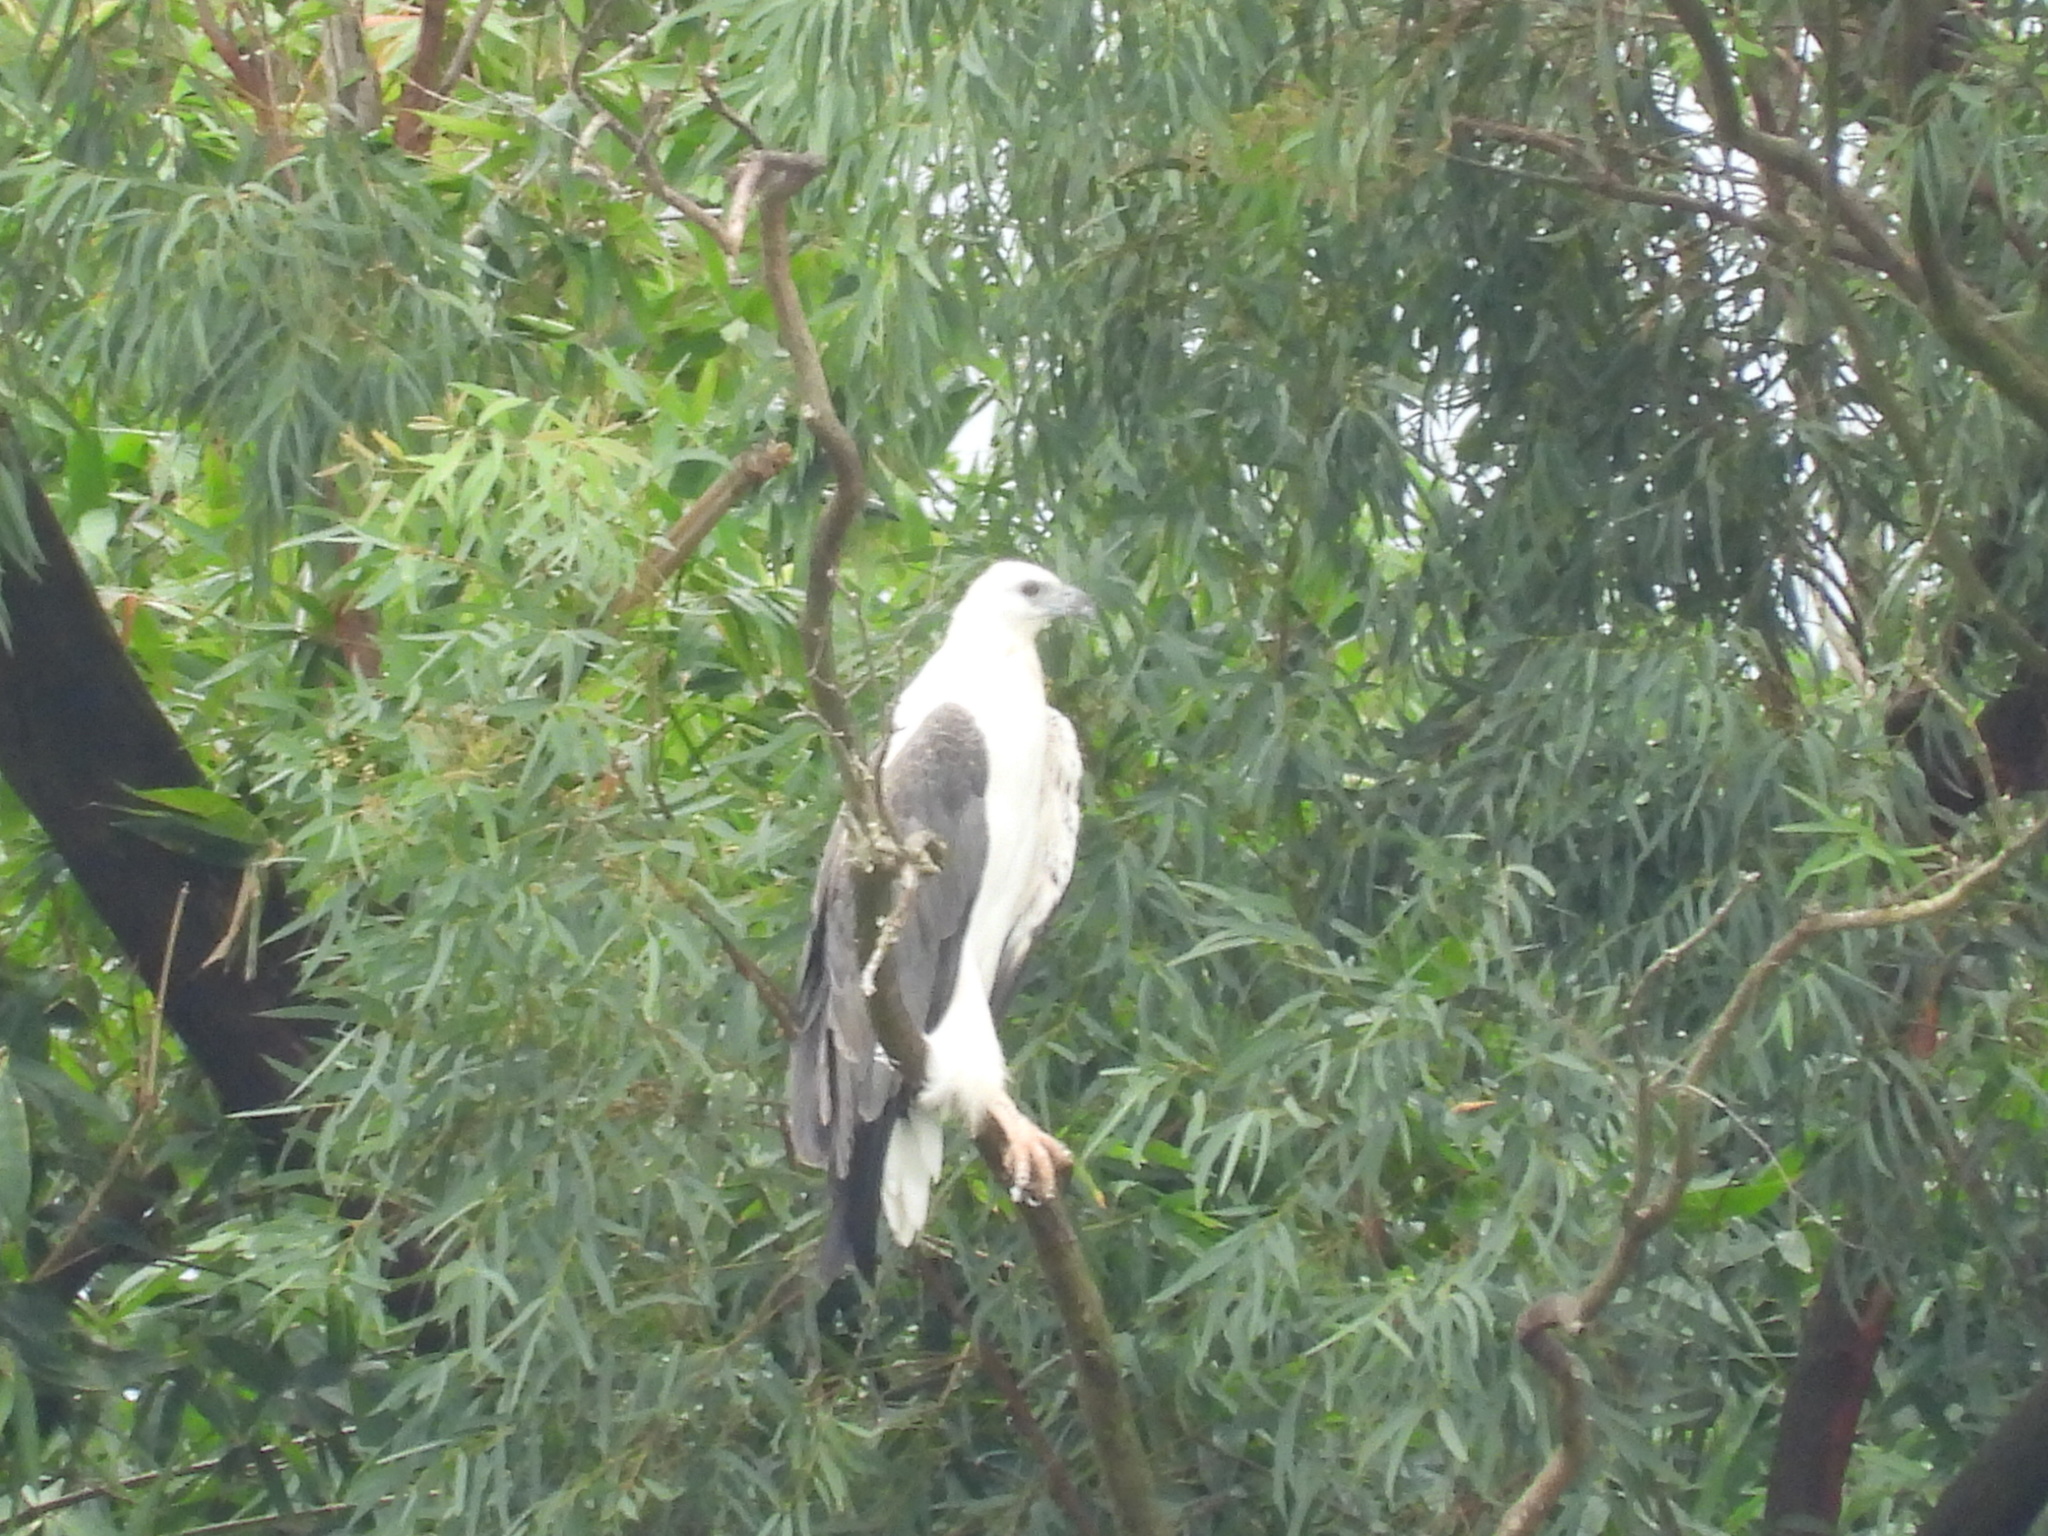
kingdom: Animalia
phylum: Chordata
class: Aves
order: Accipitriformes
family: Accipitridae
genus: Haliaeetus
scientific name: Haliaeetus leucogaster
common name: White-bellied sea eagle
